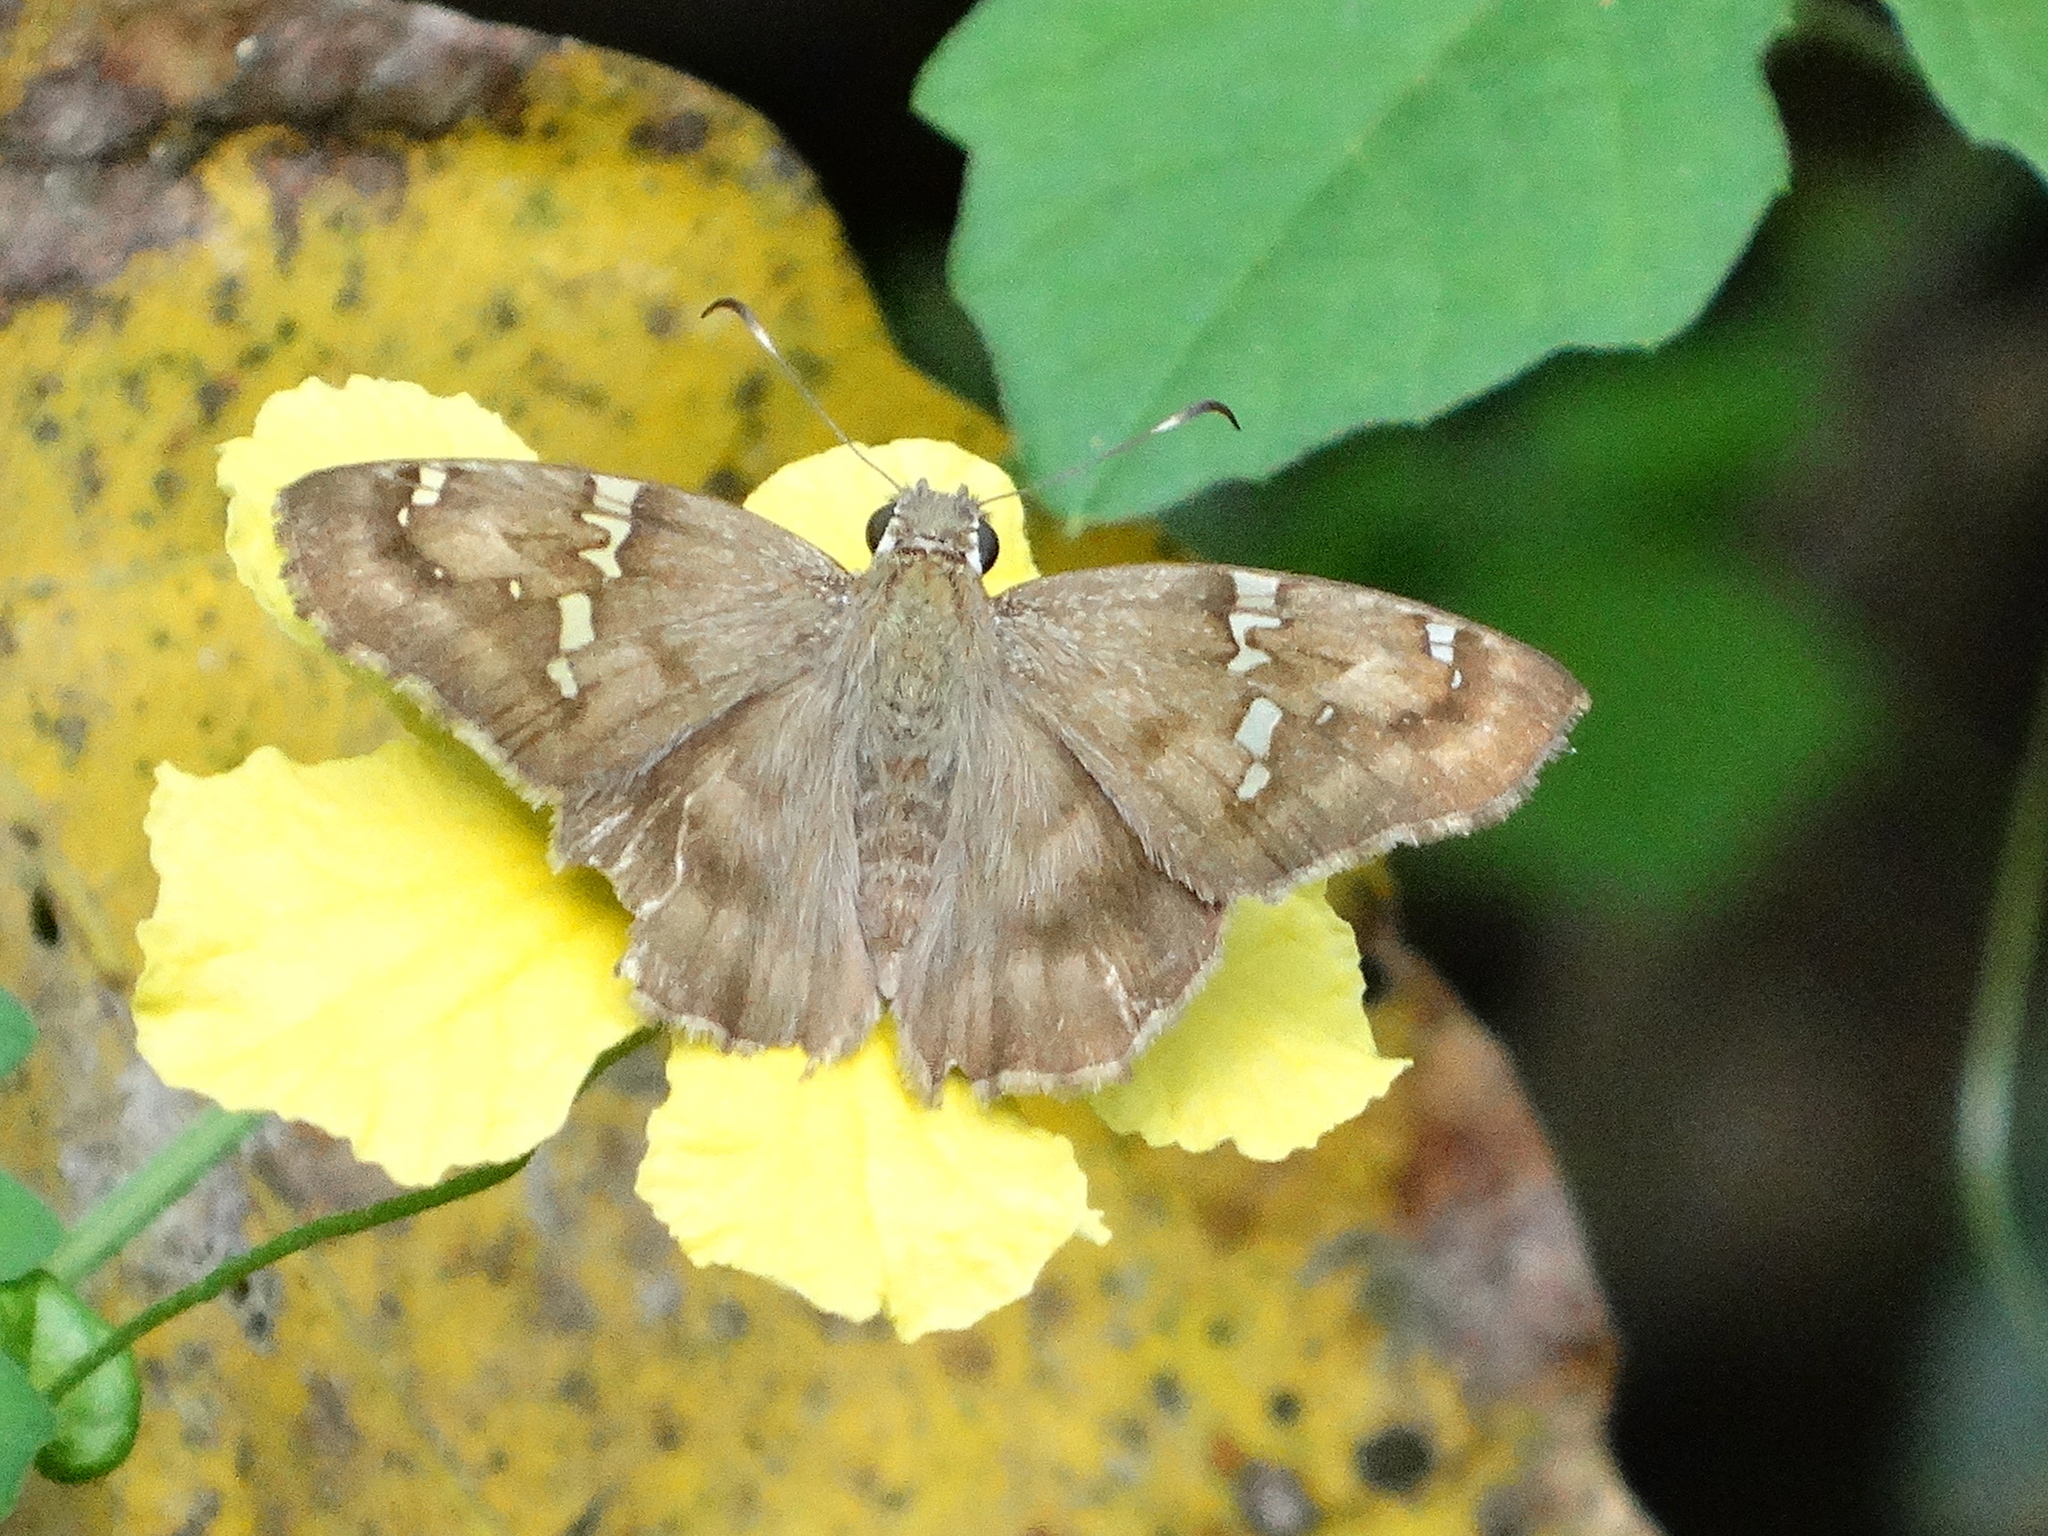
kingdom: Animalia
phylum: Arthropoda
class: Insecta
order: Lepidoptera
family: Hesperiidae
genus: Autochton
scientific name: Autochton potrillo
